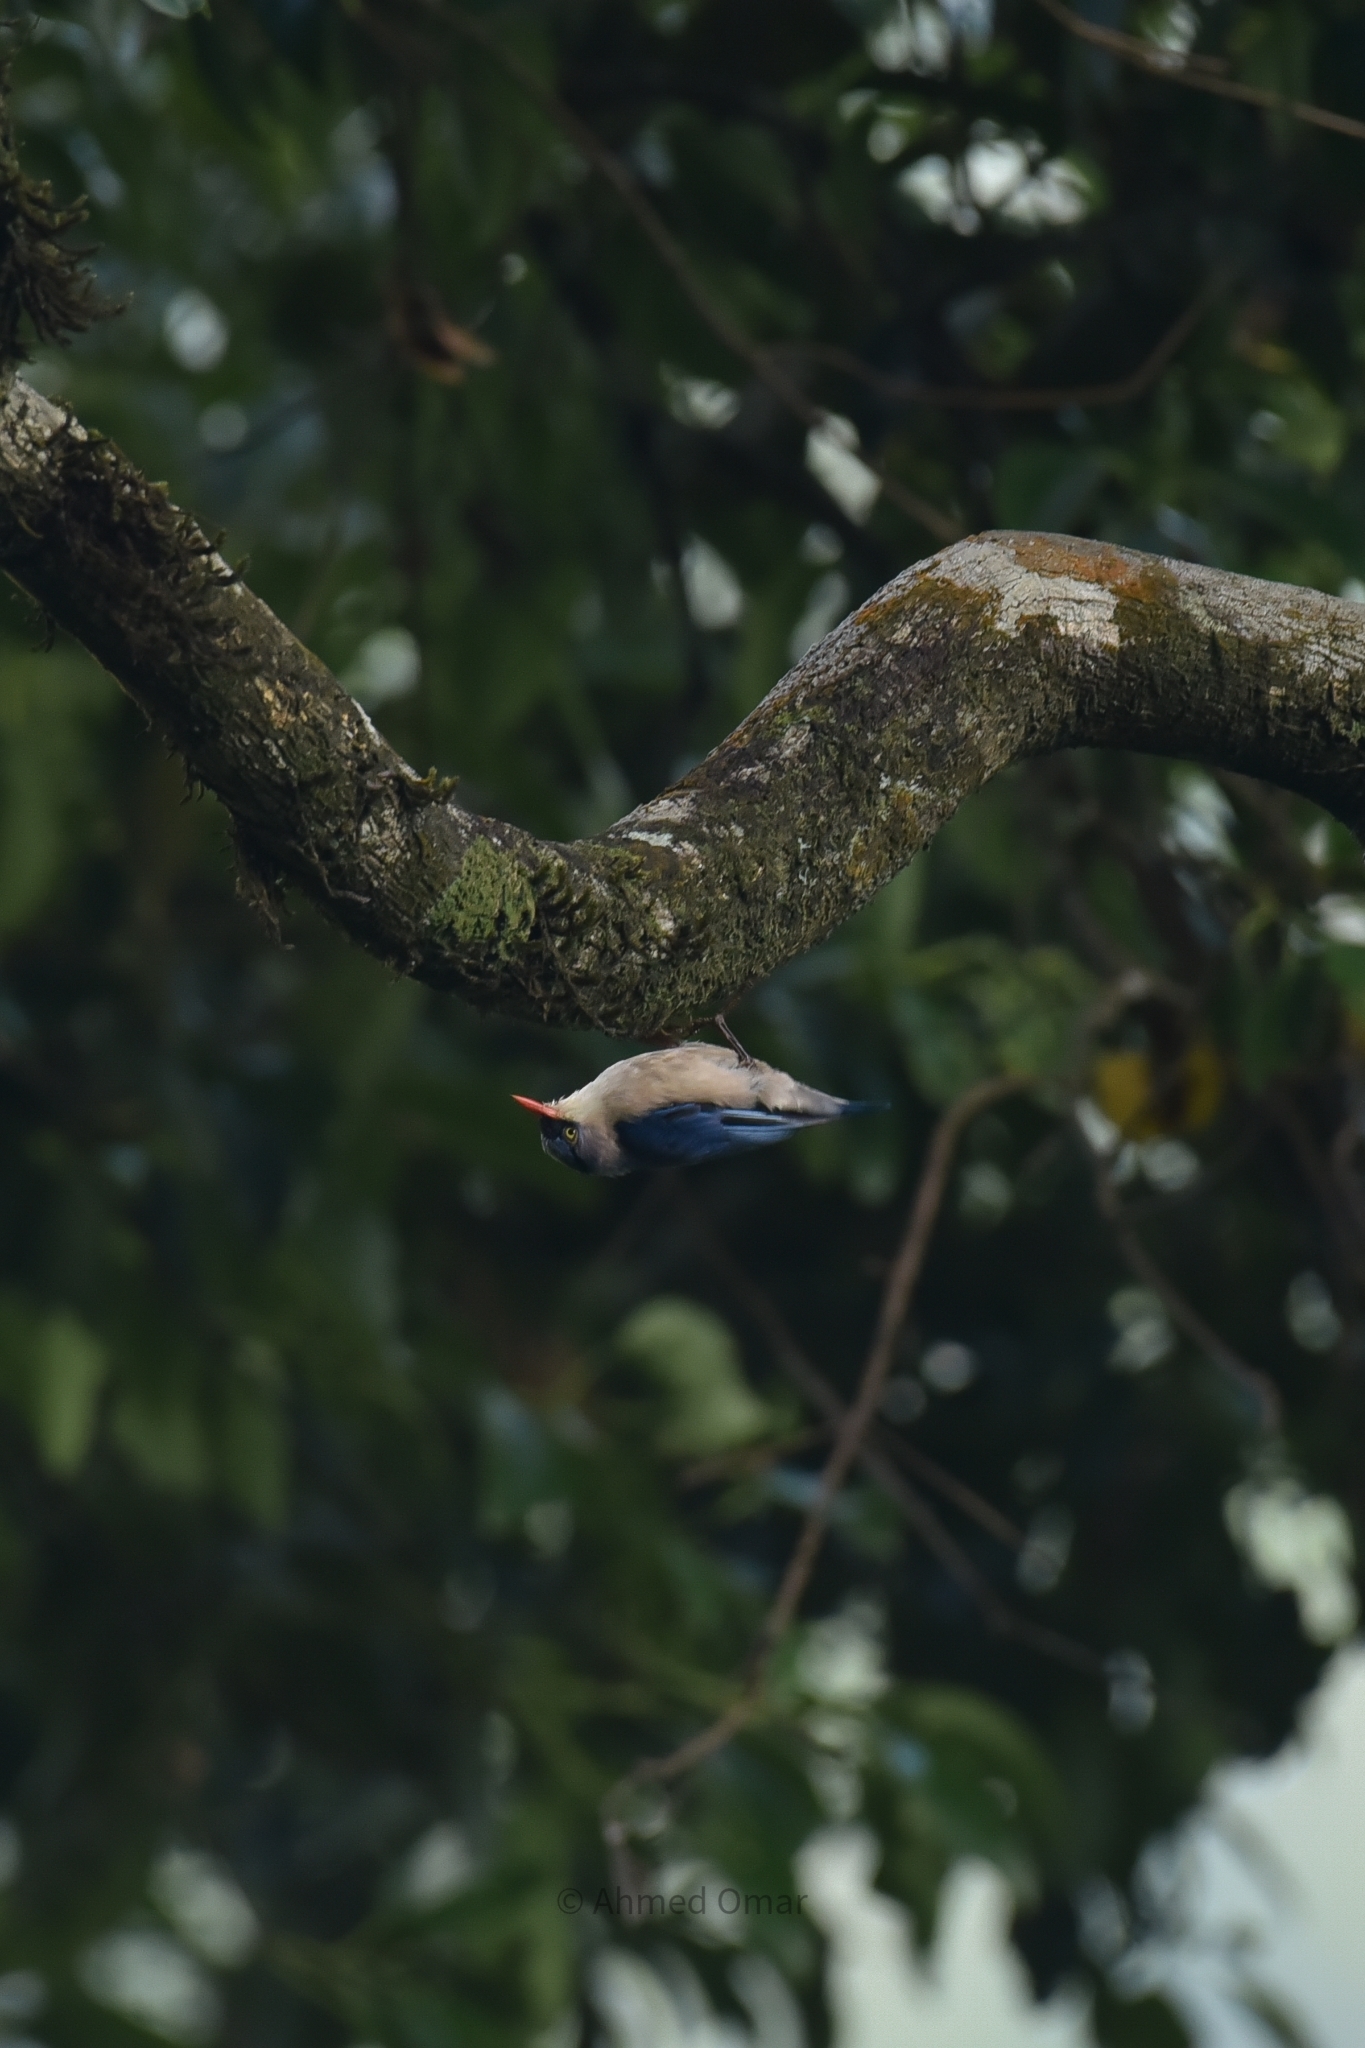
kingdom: Animalia
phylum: Chordata
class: Aves
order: Passeriformes
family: Sittidae
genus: Sitta
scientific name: Sitta frontalis
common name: Velvet-fronted nuthatch
